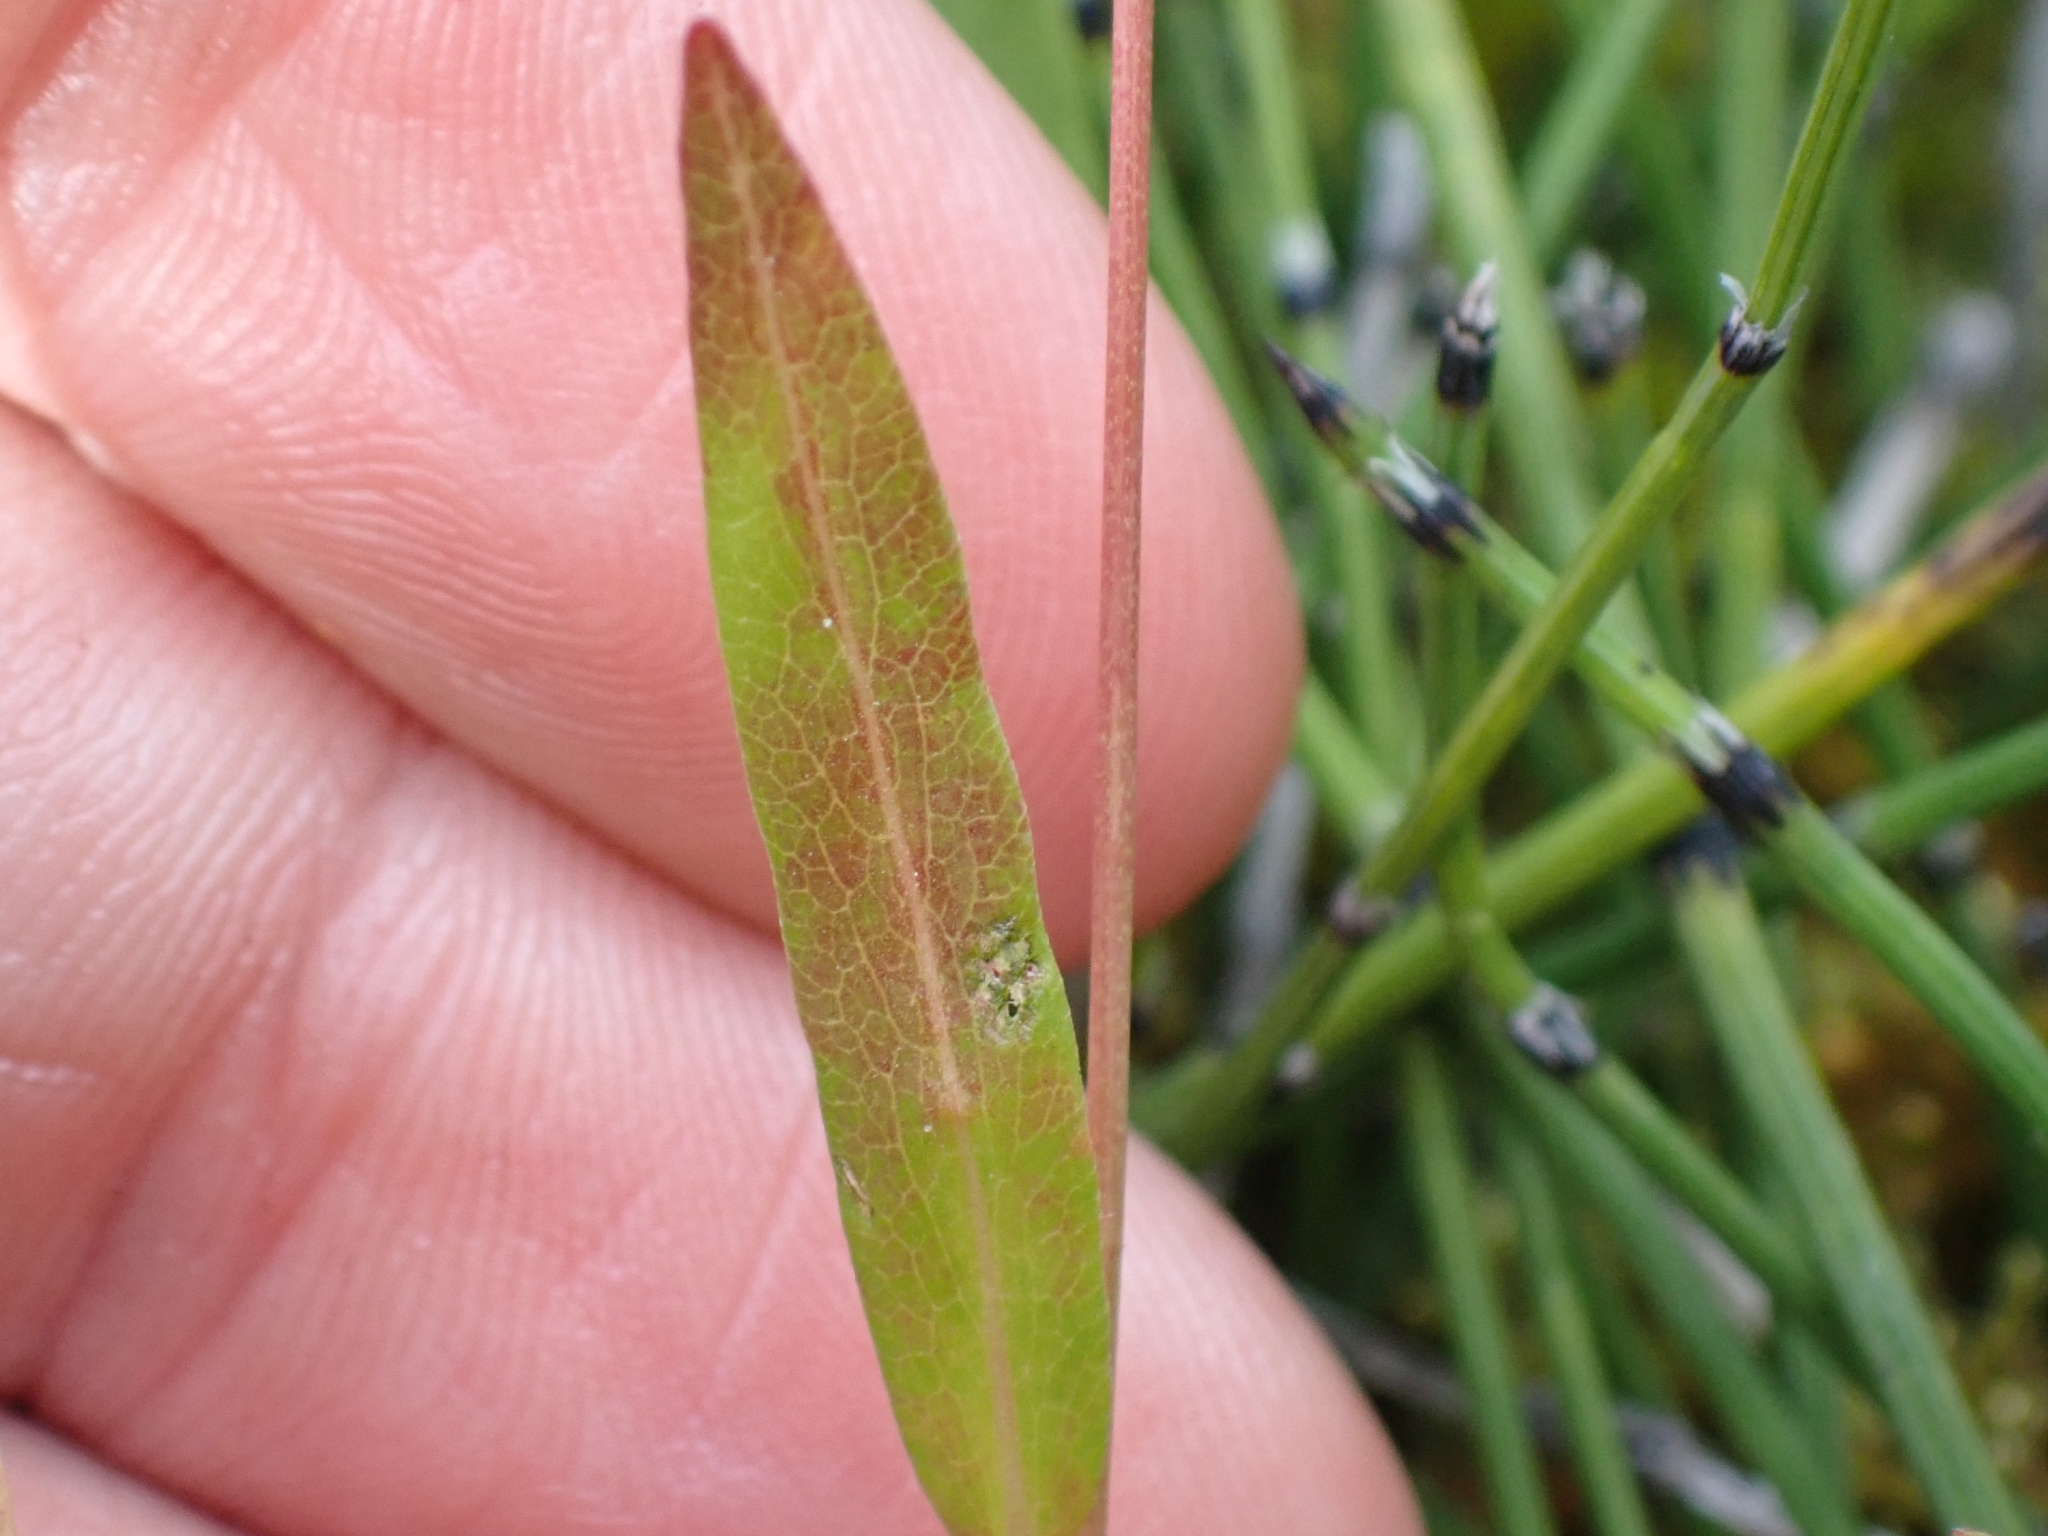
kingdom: Plantae
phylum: Tracheophyta
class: Magnoliopsida
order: Caryophyllales
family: Polygonaceae
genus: Bistorta
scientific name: Bistorta vivipara
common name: Alpine bistort
